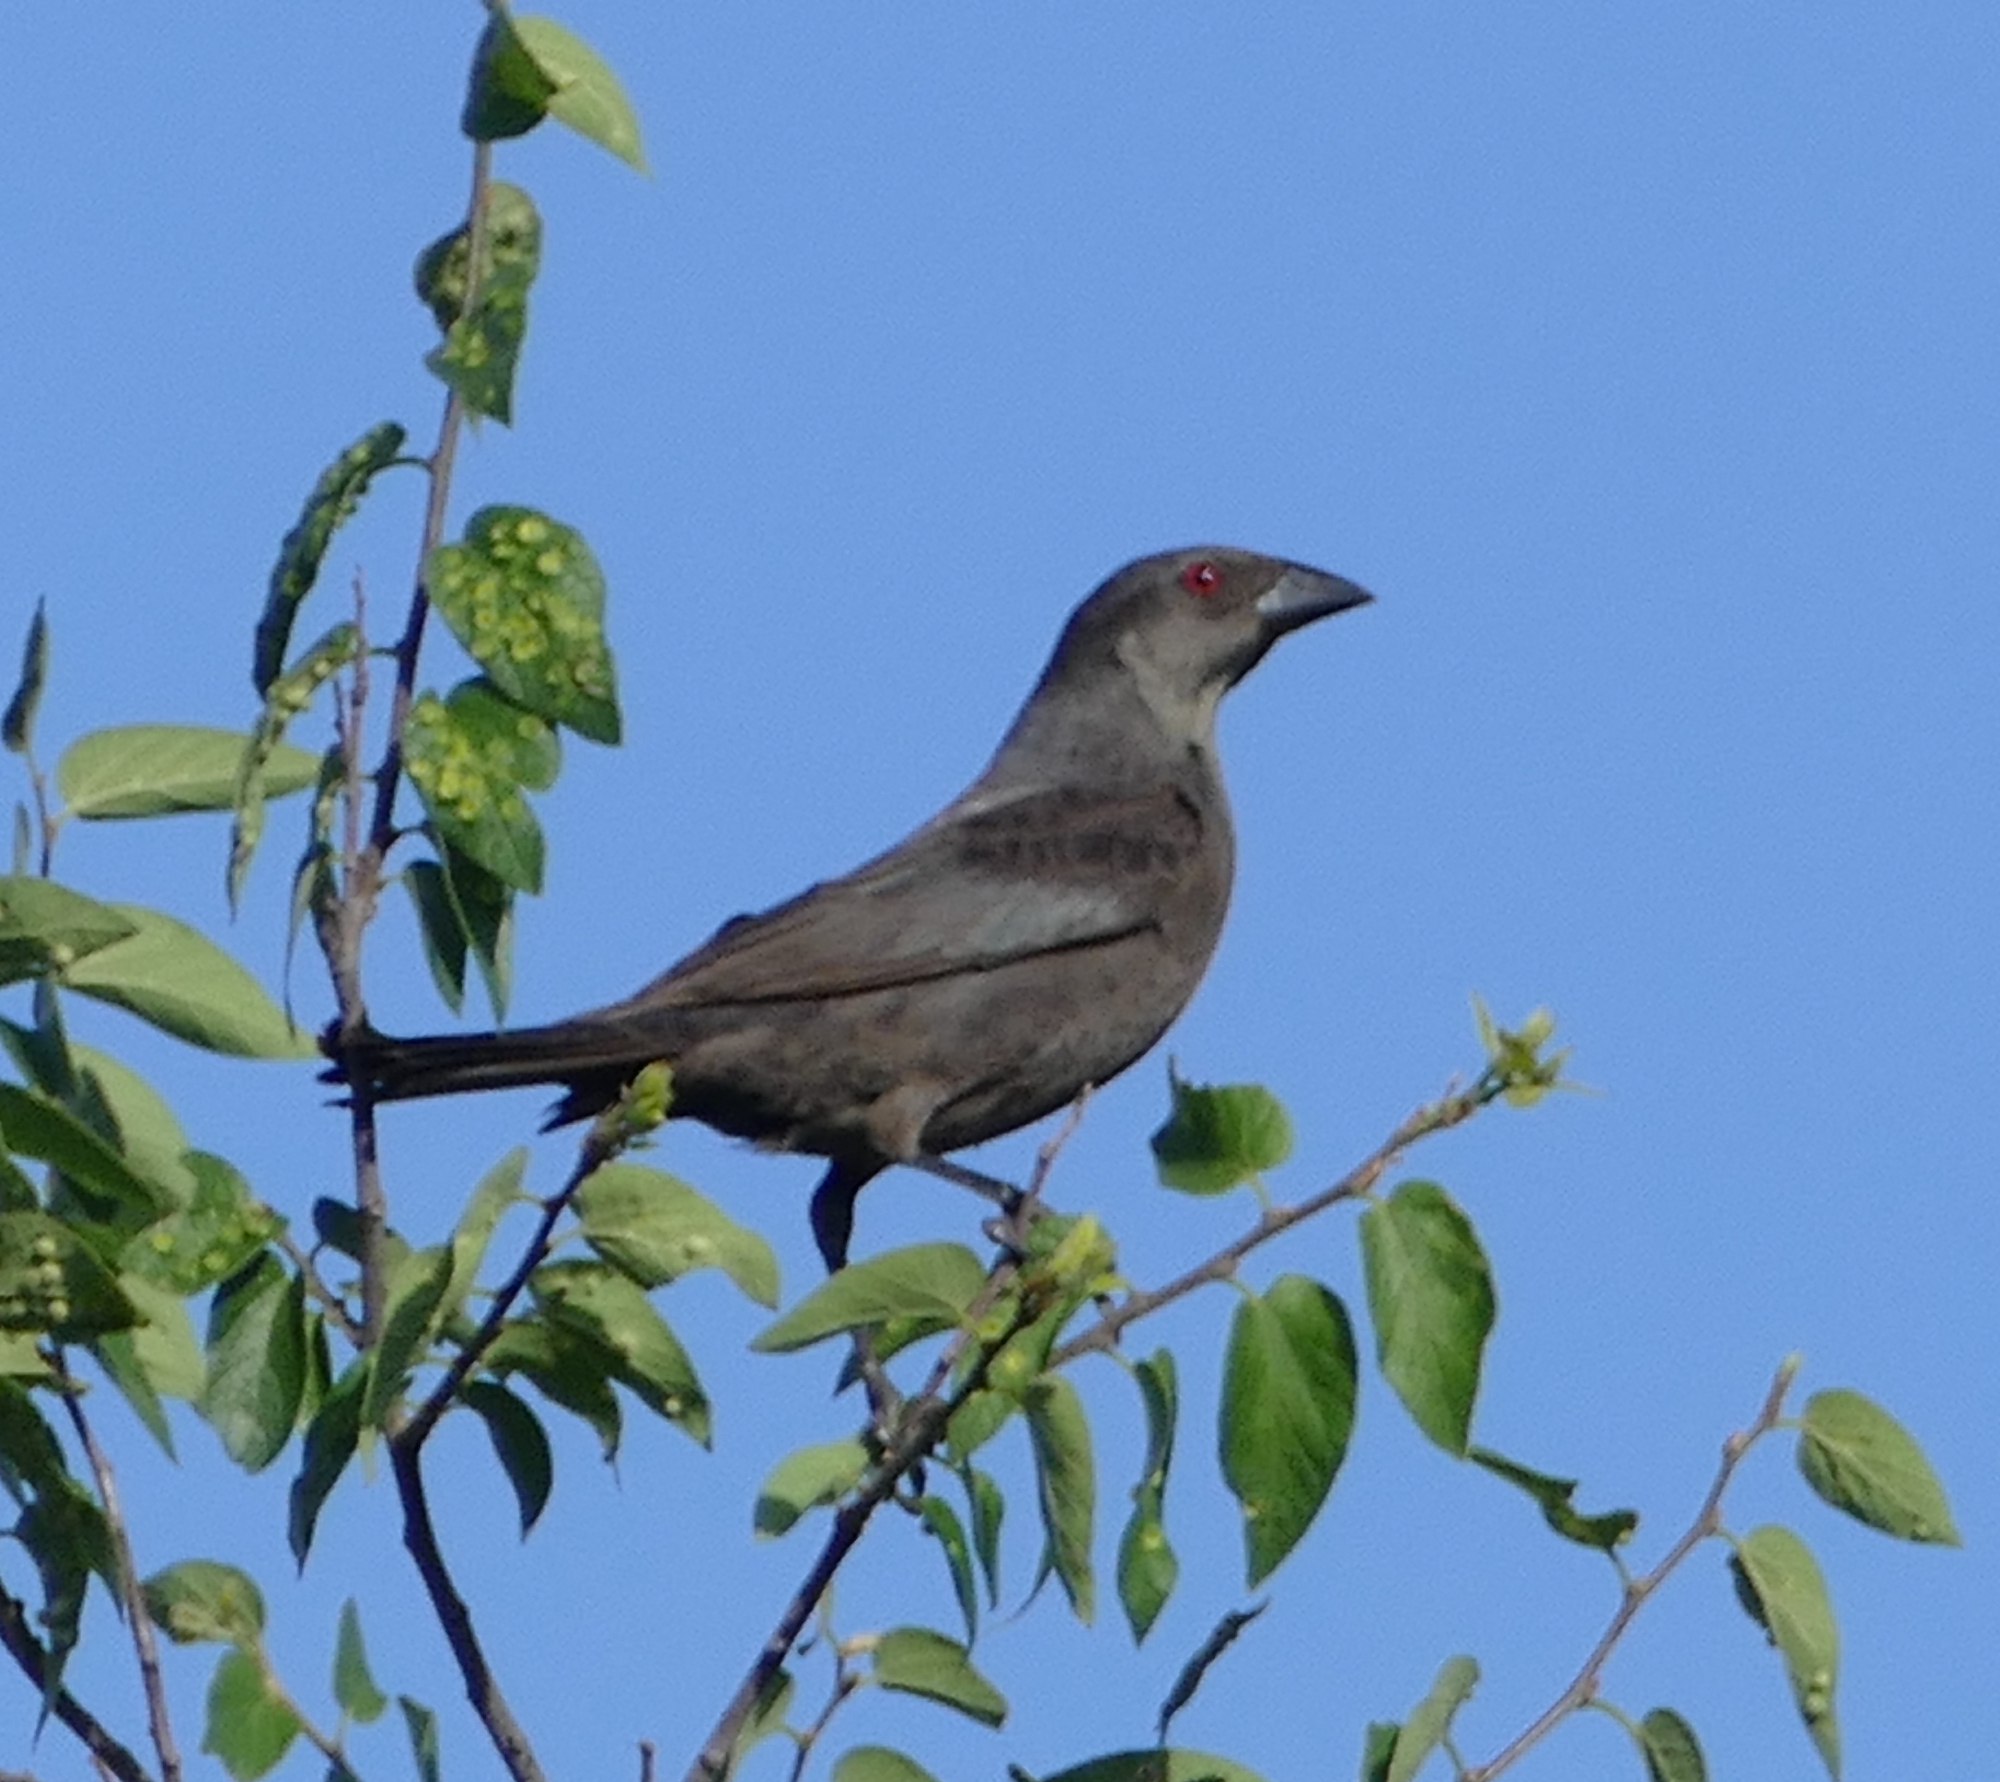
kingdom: Animalia
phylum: Chordata
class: Aves
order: Passeriformes
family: Icteridae
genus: Molothrus
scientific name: Molothrus aeneus
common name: Bronzed cowbird
